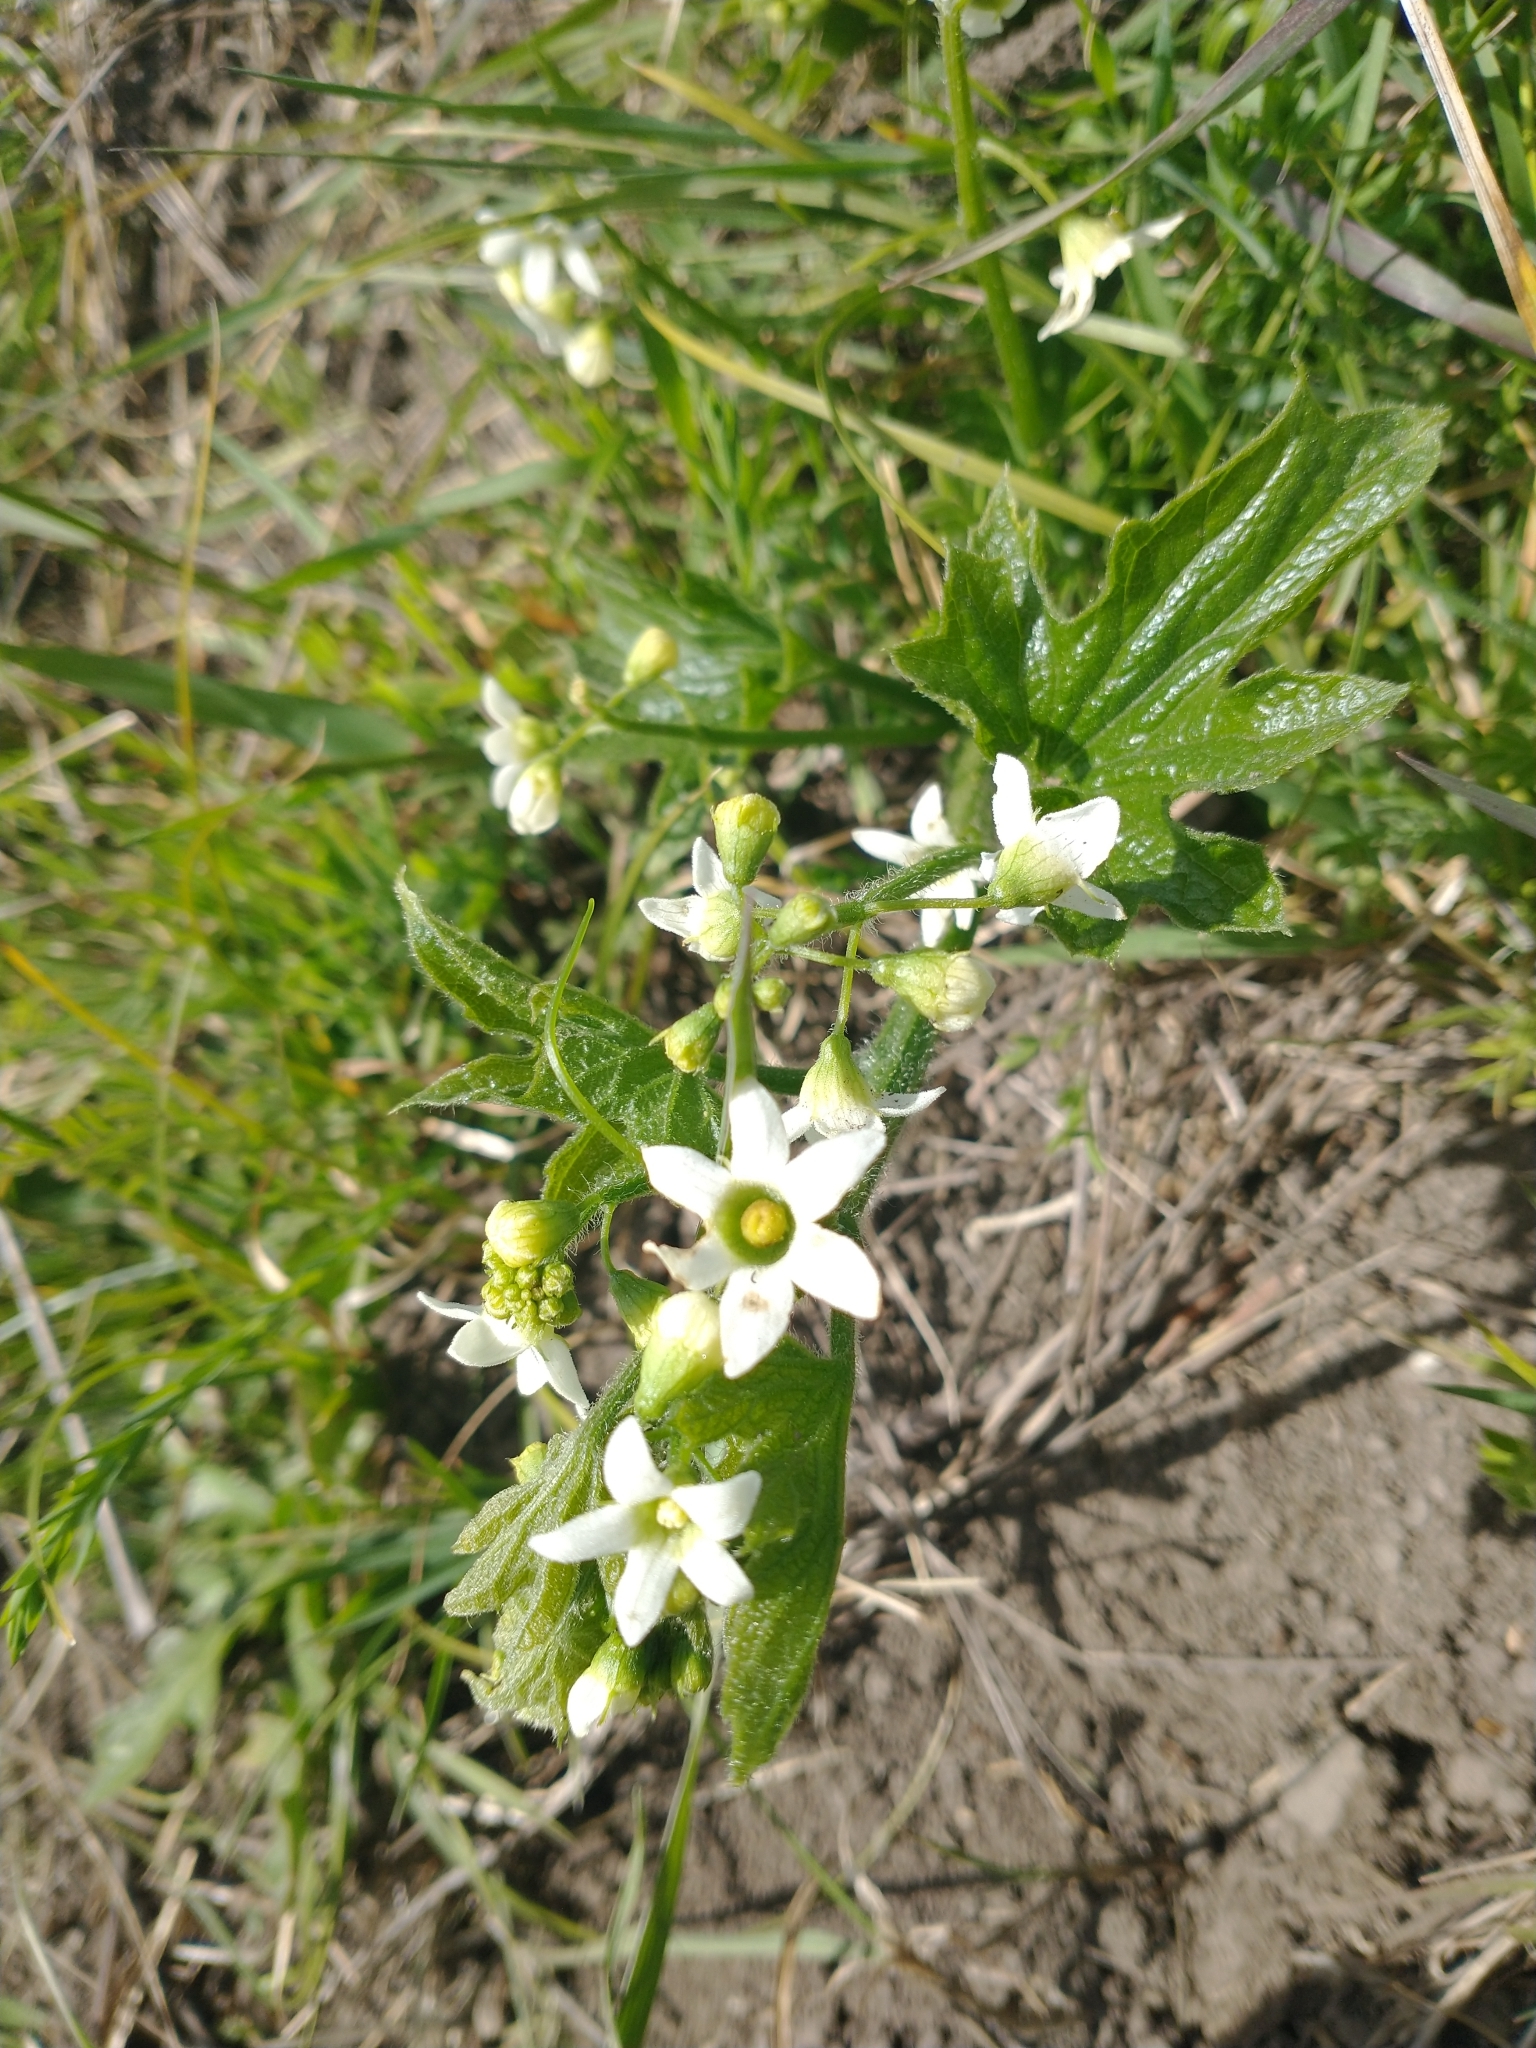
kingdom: Plantae
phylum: Tracheophyta
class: Magnoliopsida
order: Cucurbitales
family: Cucurbitaceae
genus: Marah
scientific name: Marah oregana
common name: Coastal manroot
